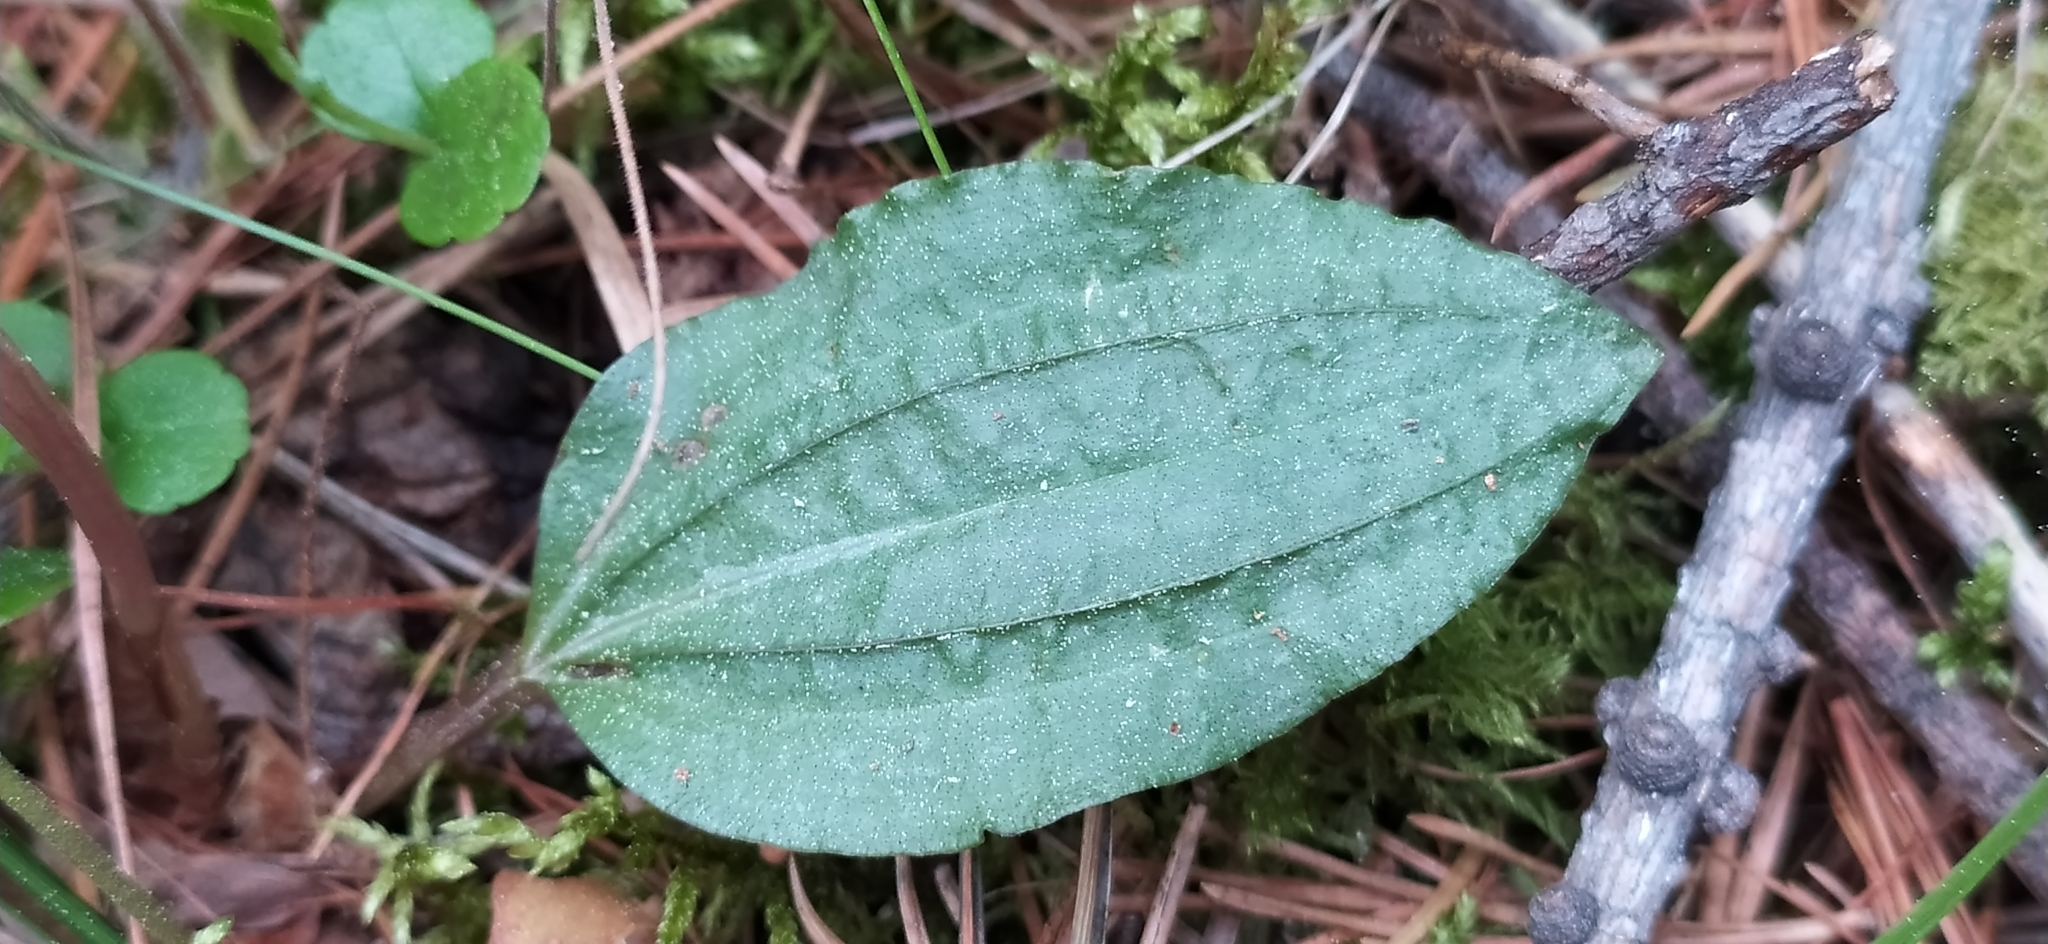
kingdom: Plantae
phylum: Tracheophyta
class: Liliopsida
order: Asparagales
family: Orchidaceae
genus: Calypso
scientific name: Calypso bulbosa
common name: Calypso
